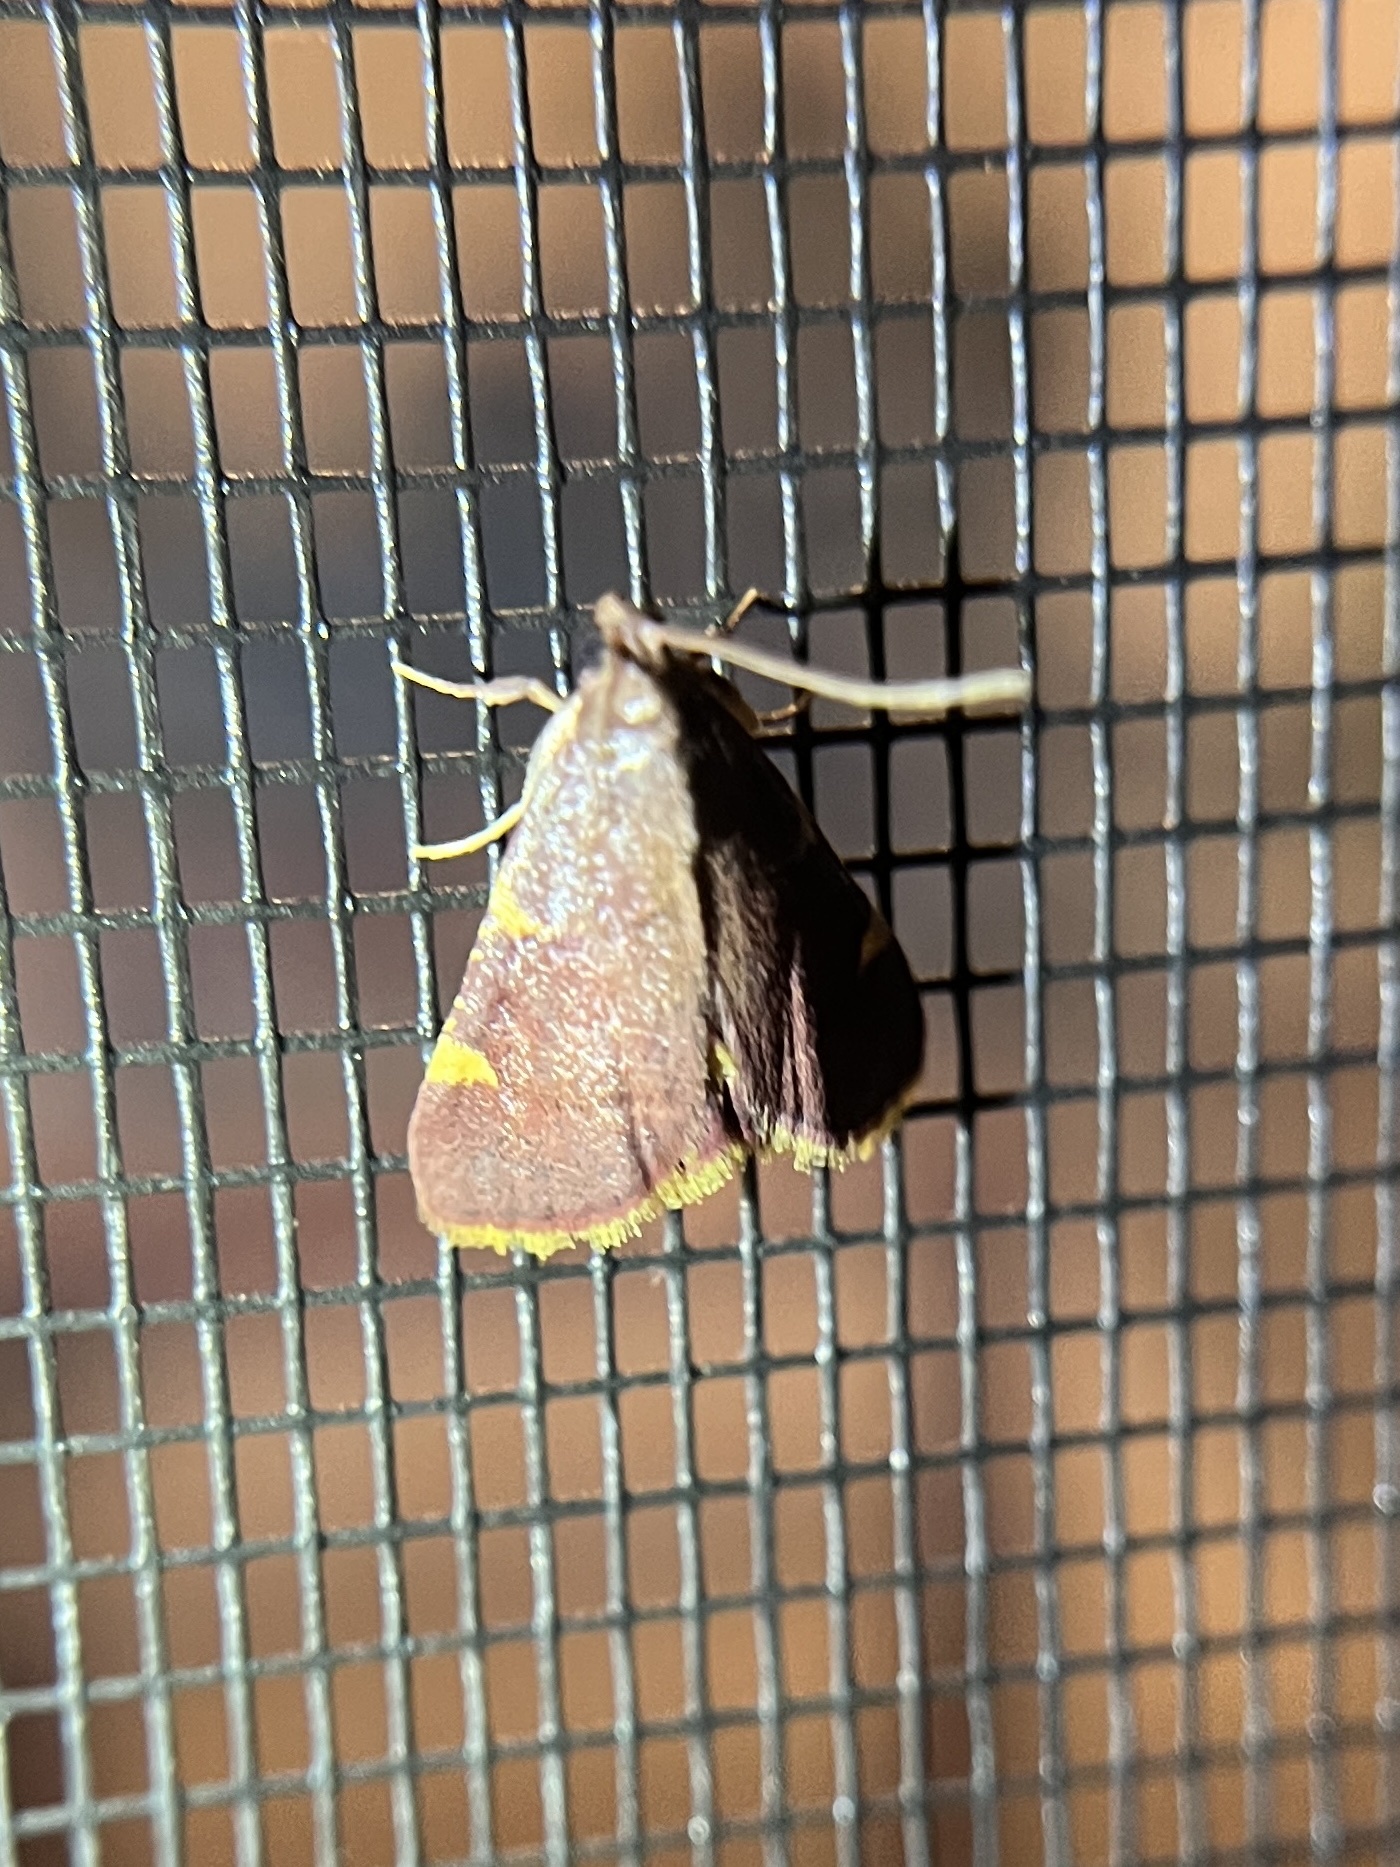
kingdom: Animalia
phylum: Arthropoda
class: Insecta
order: Lepidoptera
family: Pyralidae
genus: Hypsopygia
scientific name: Hypsopygia olinalis
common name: Yellow-fringed dolichomia moth
